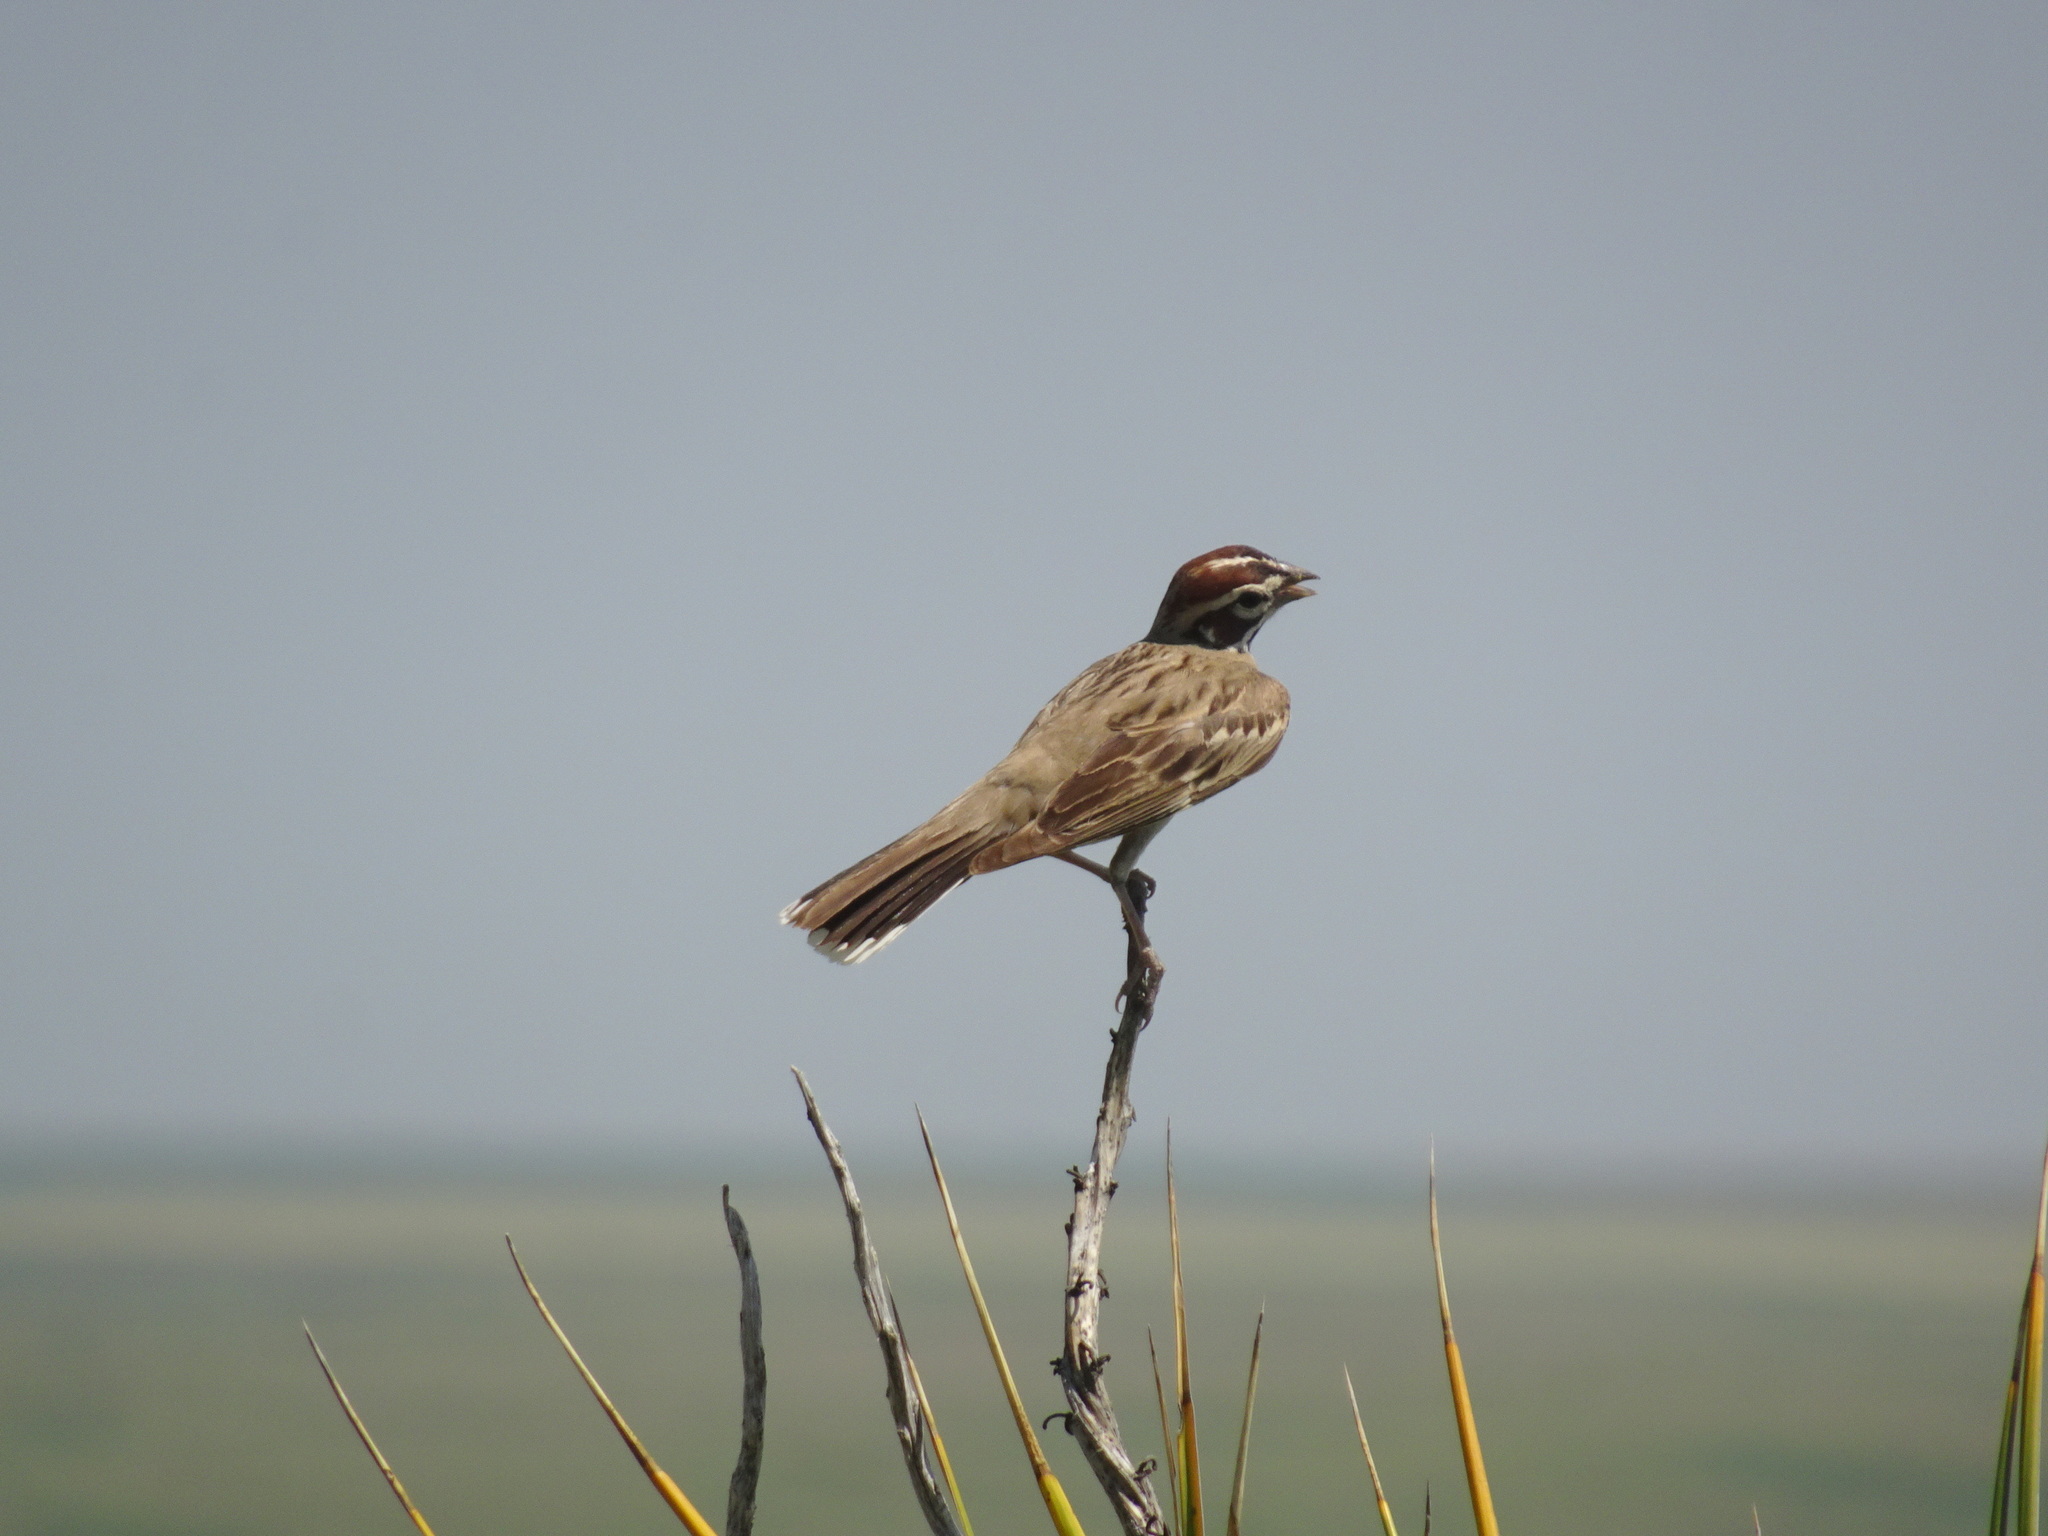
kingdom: Animalia
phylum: Chordata
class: Aves
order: Passeriformes
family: Passerellidae
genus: Chondestes
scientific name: Chondestes grammacus
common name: Lark sparrow
